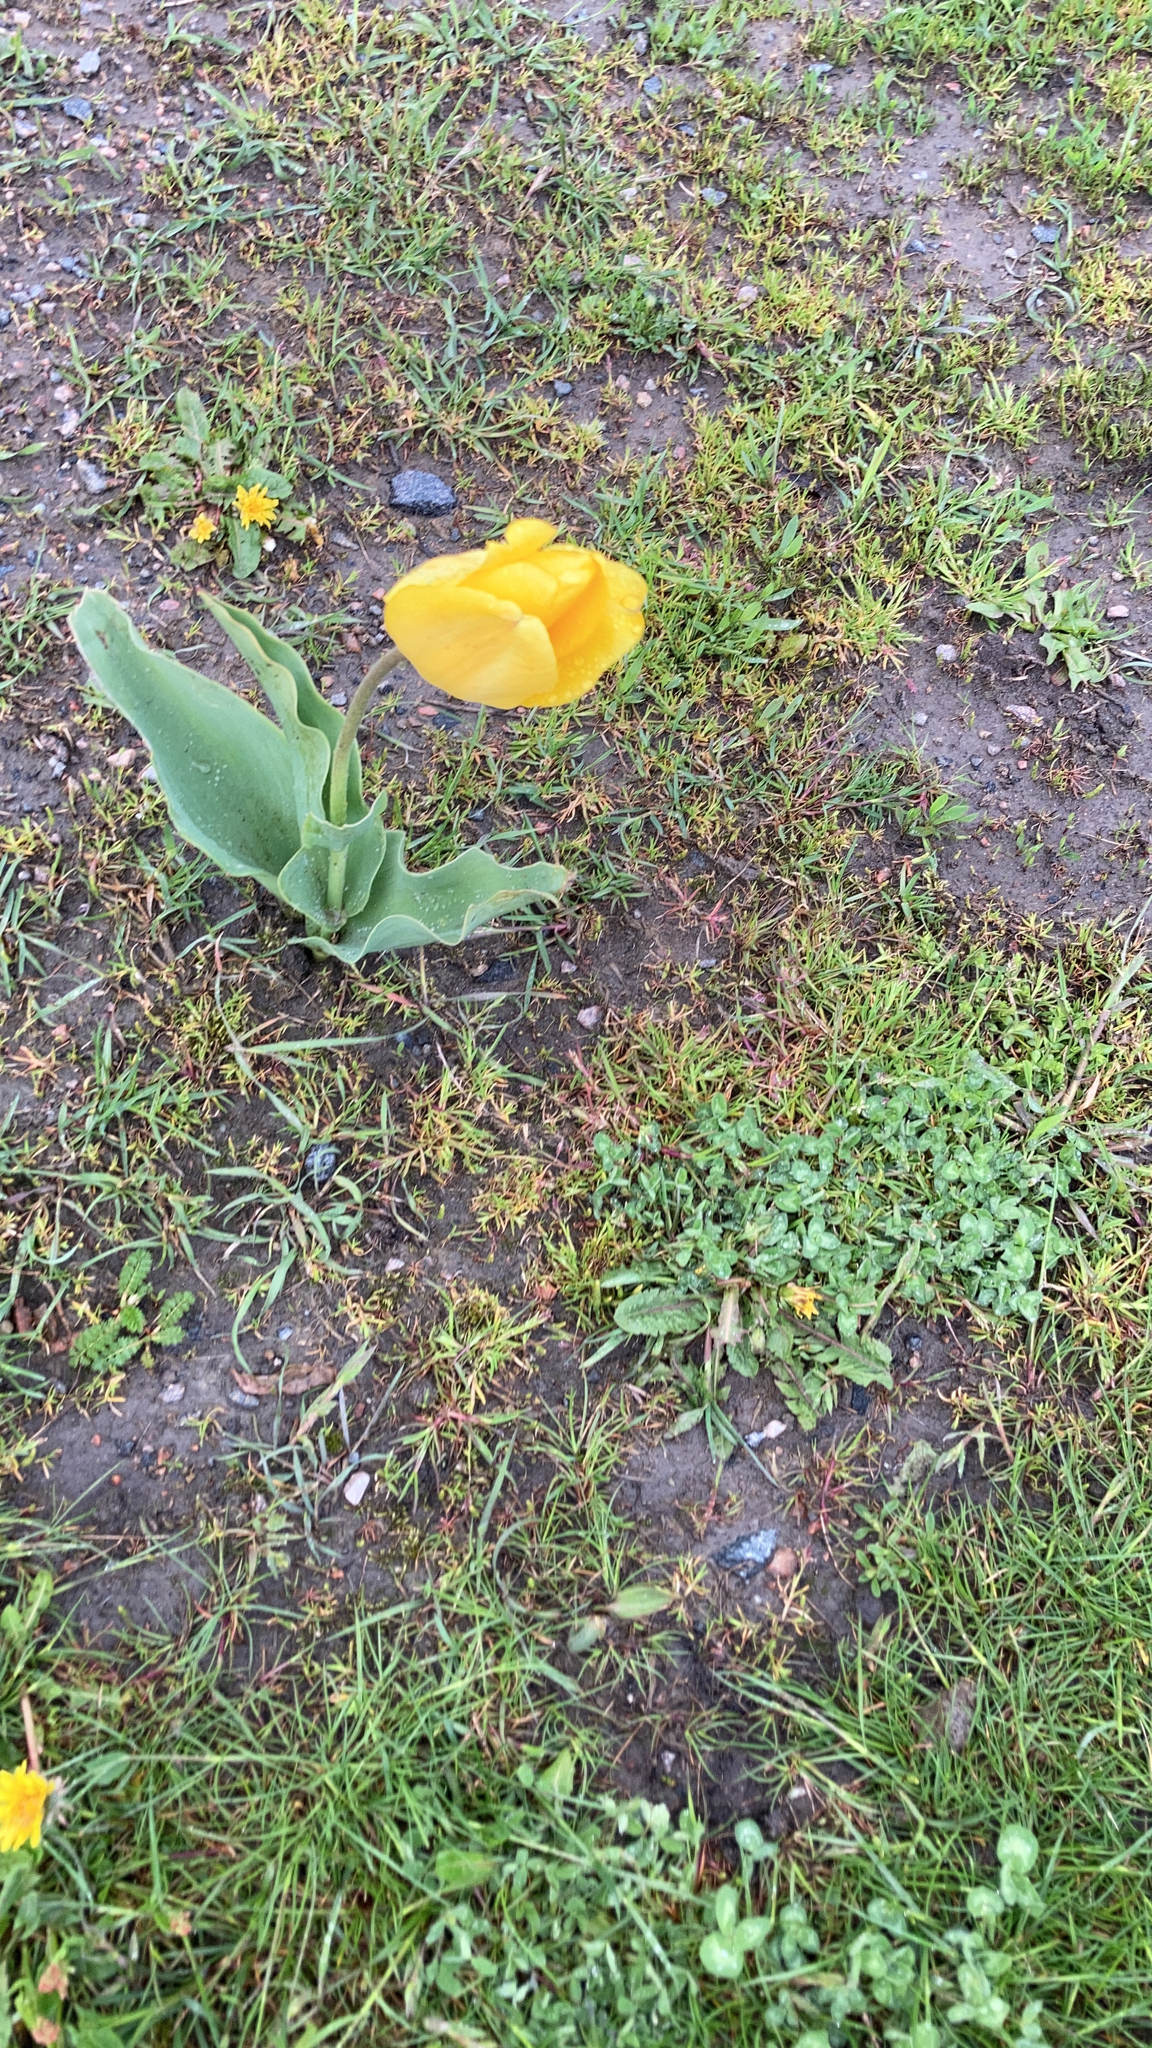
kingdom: Plantae
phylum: Tracheophyta
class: Liliopsida
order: Liliales
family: Liliaceae
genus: Tulipa
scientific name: Tulipa gesneriana
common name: Garden tulip
